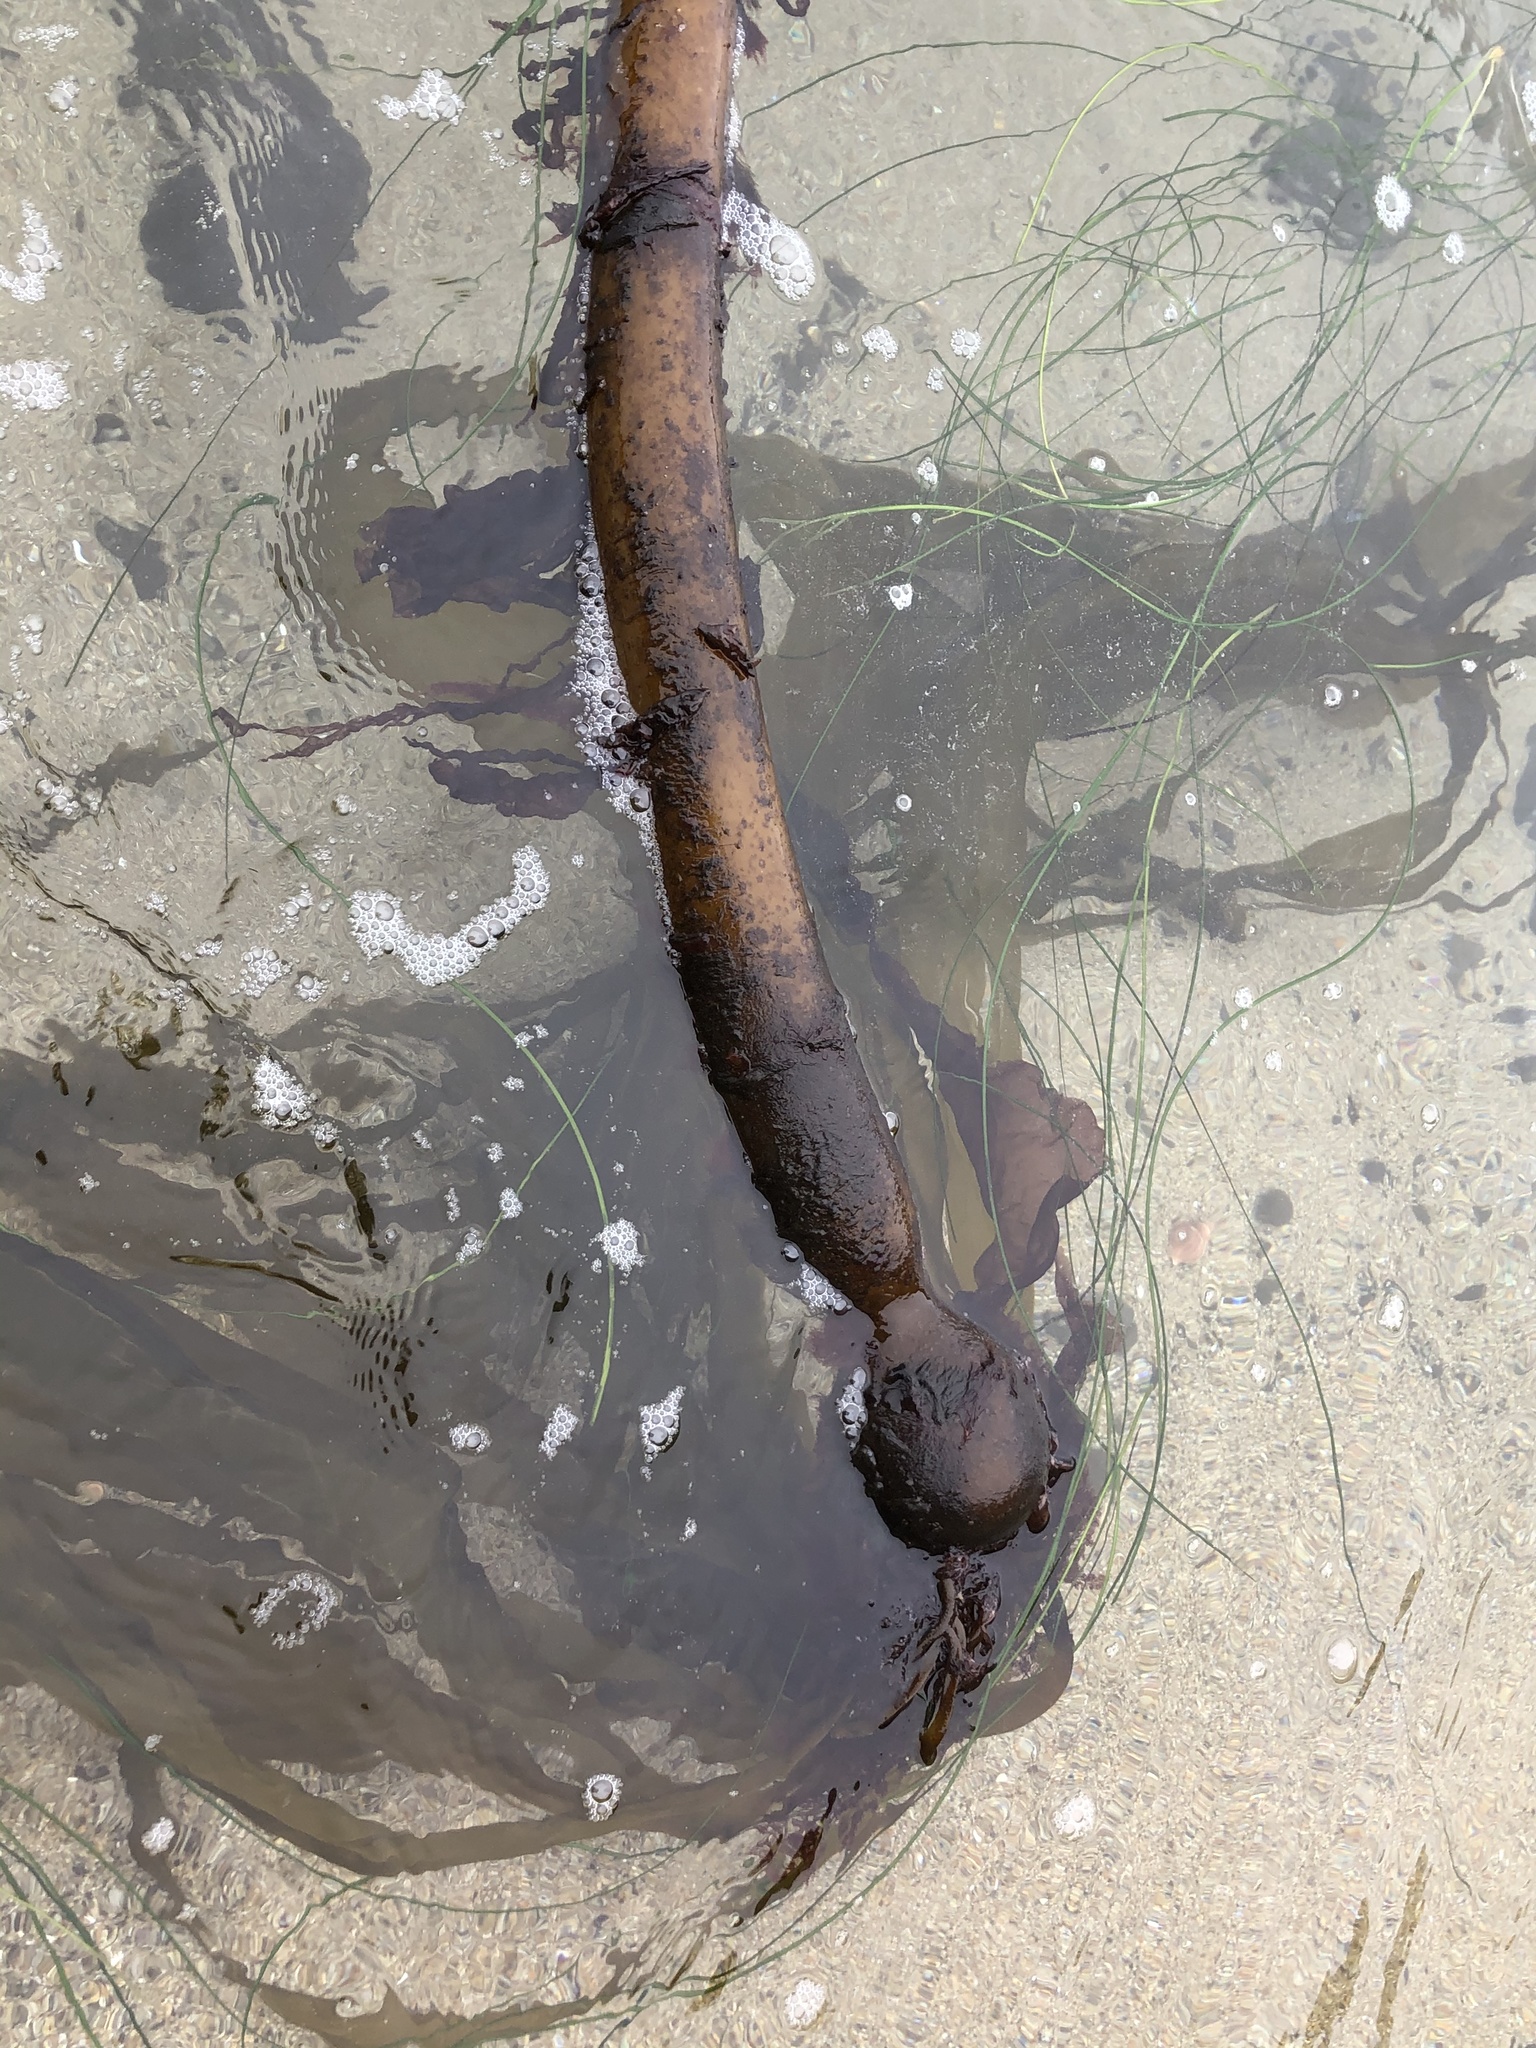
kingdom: Chromista
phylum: Ochrophyta
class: Phaeophyceae
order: Laminariales
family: Laminariaceae
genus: Nereocystis
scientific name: Nereocystis luetkeana
